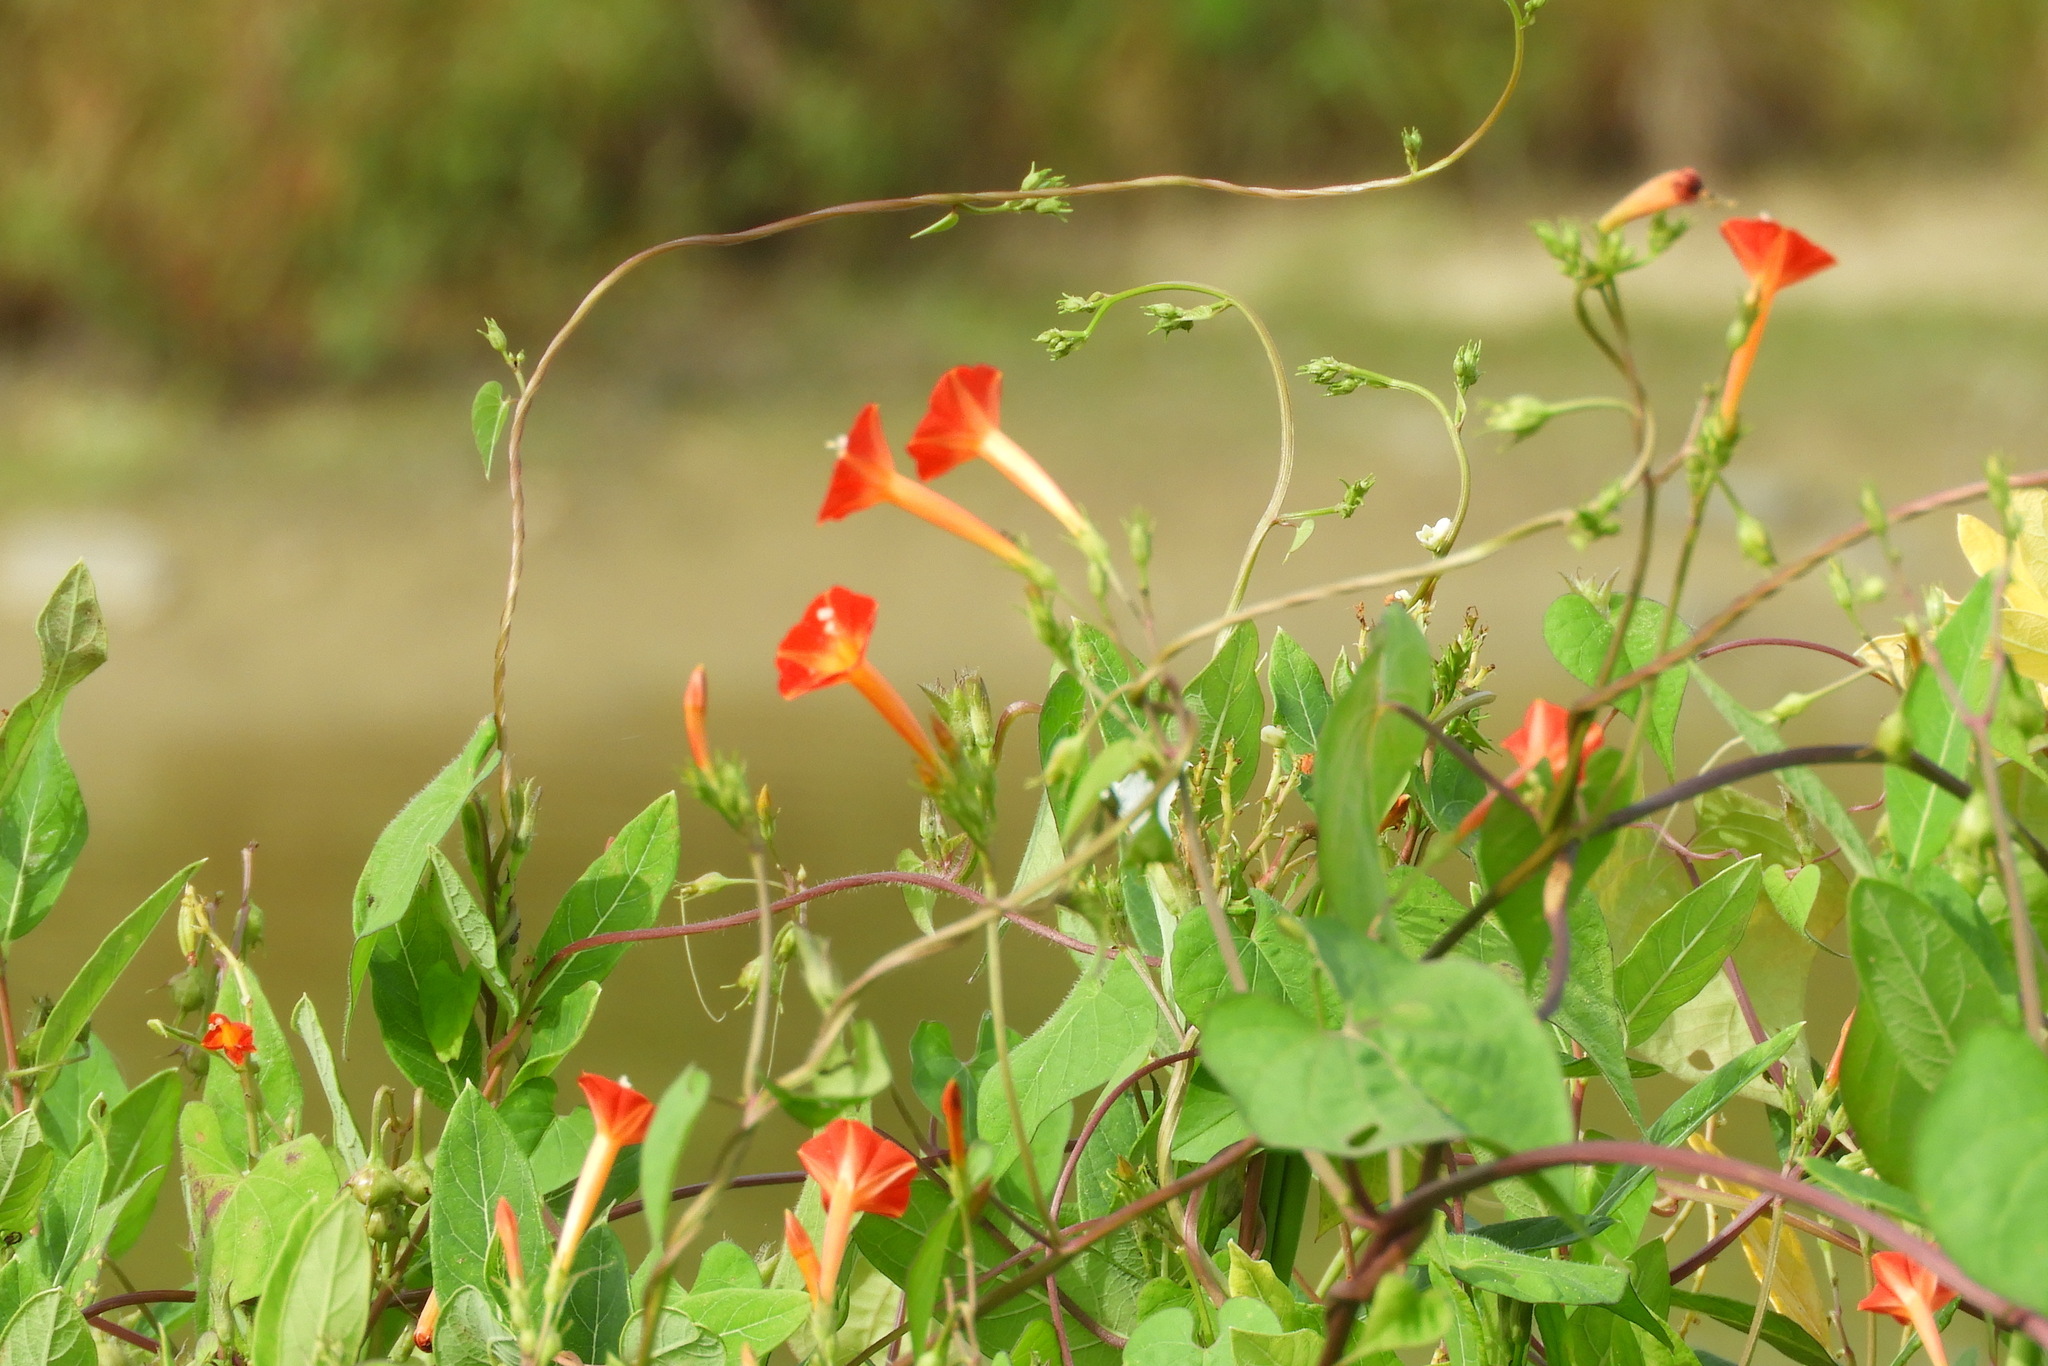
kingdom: Plantae
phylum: Tracheophyta
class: Magnoliopsida
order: Solanales
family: Convolvulaceae
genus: Ipomoea
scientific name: Ipomoea coccinea
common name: Red morning-glory
